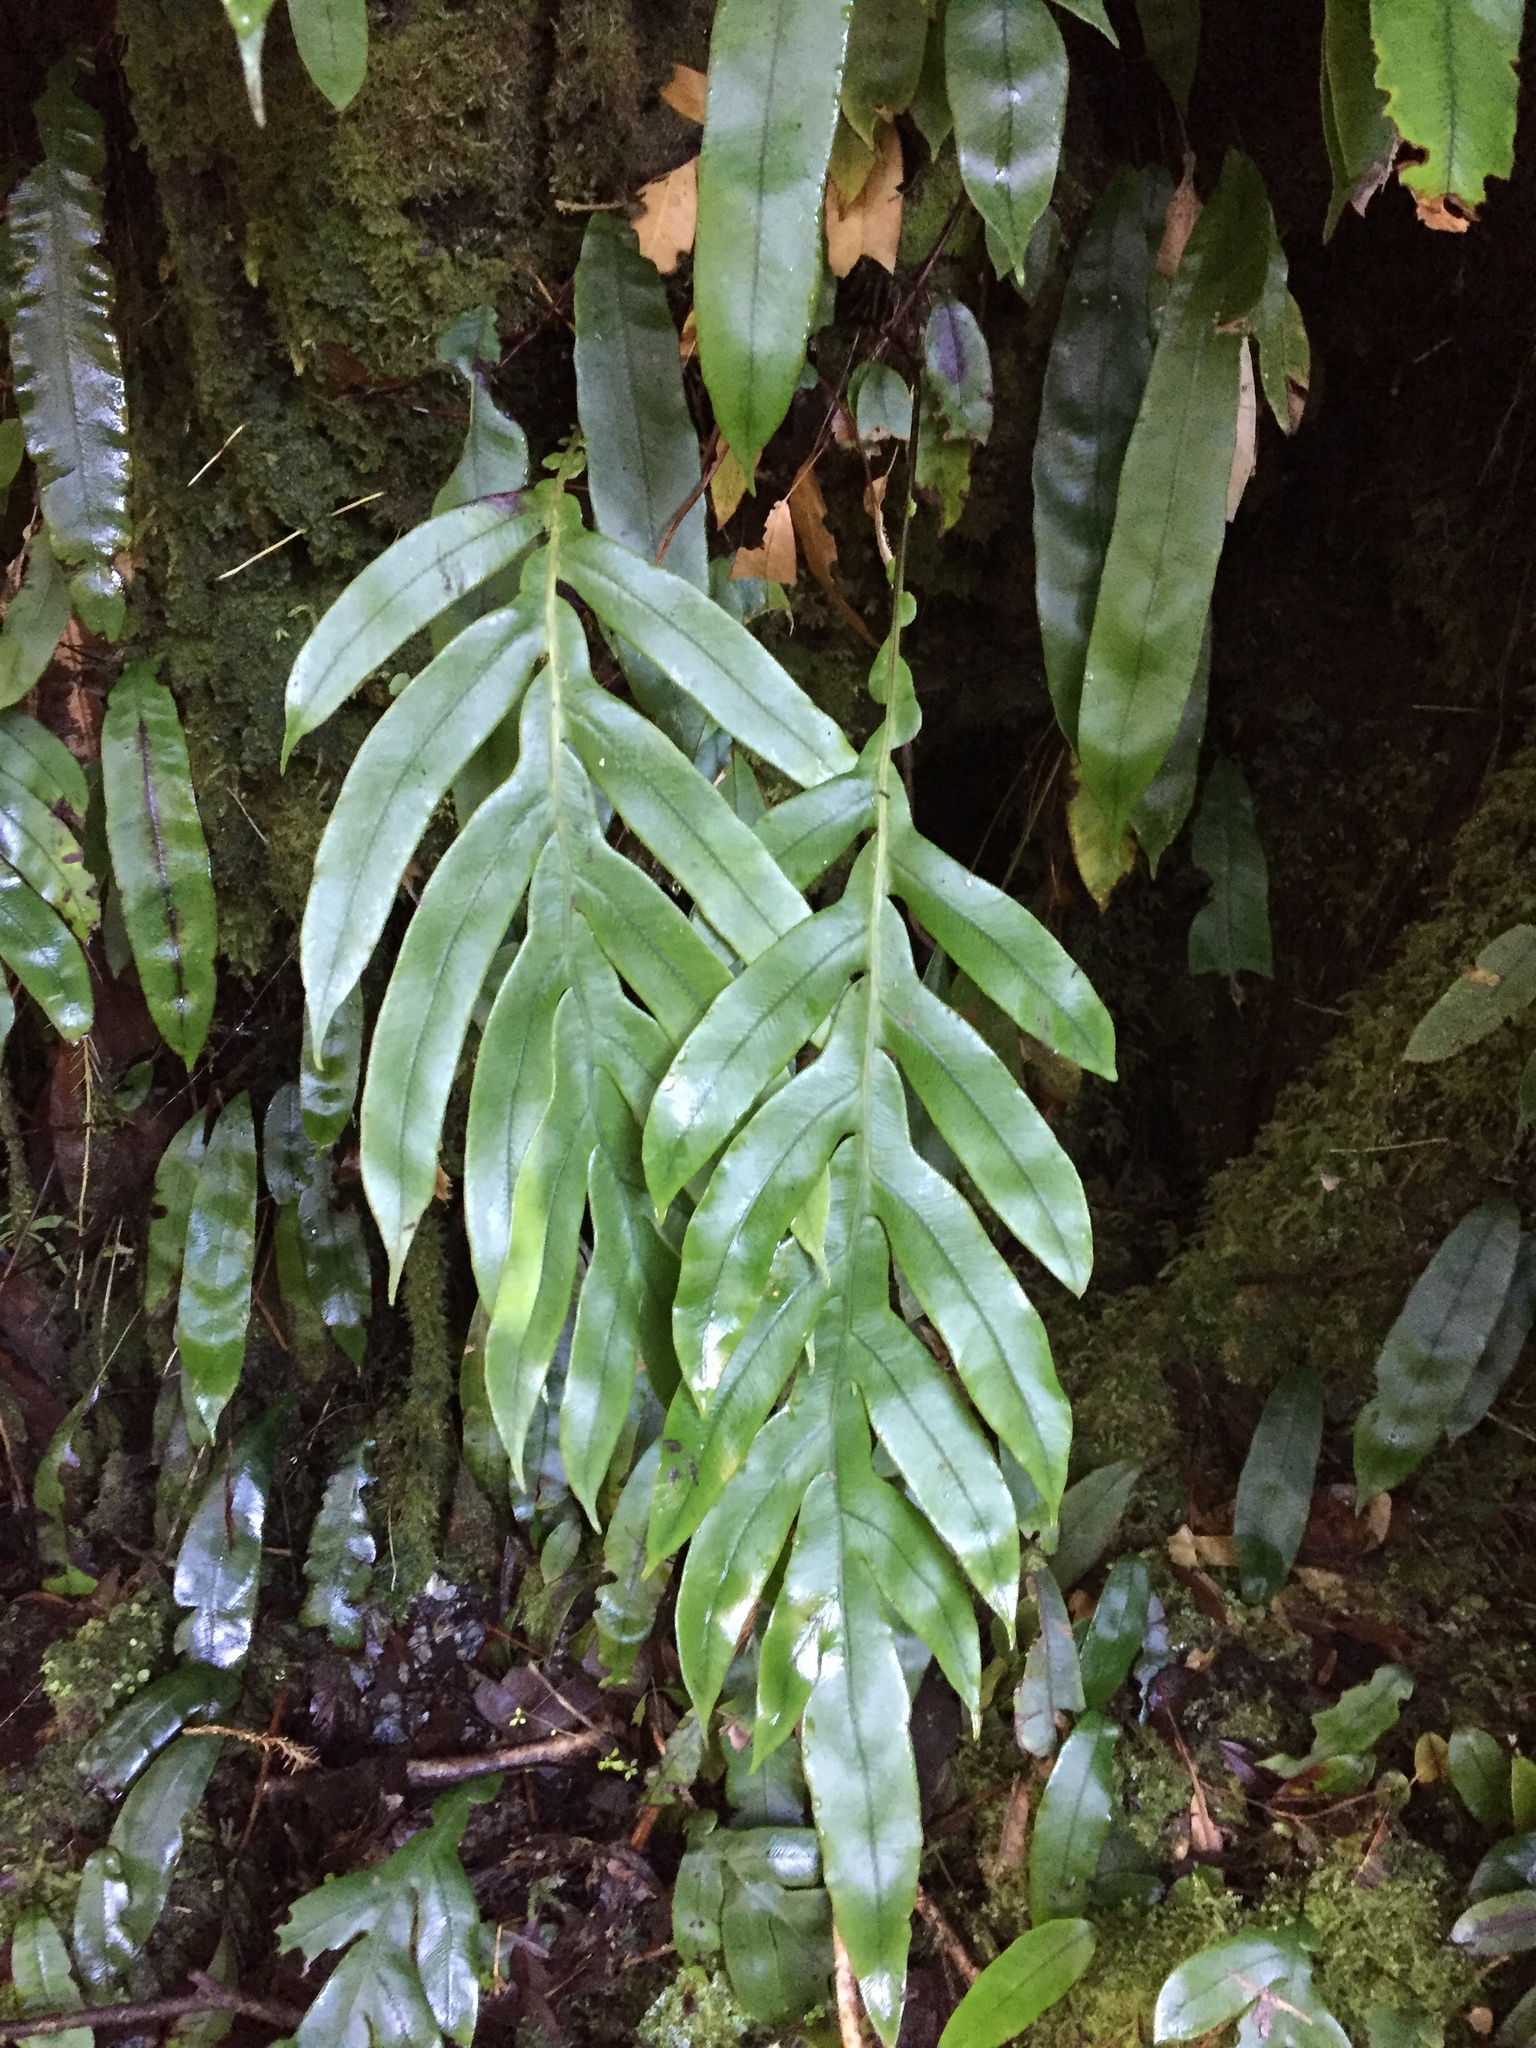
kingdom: Plantae
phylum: Tracheophyta
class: Polypodiopsida
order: Polypodiales
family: Blechnaceae
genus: Austroblechnum
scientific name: Austroblechnum colensoi
